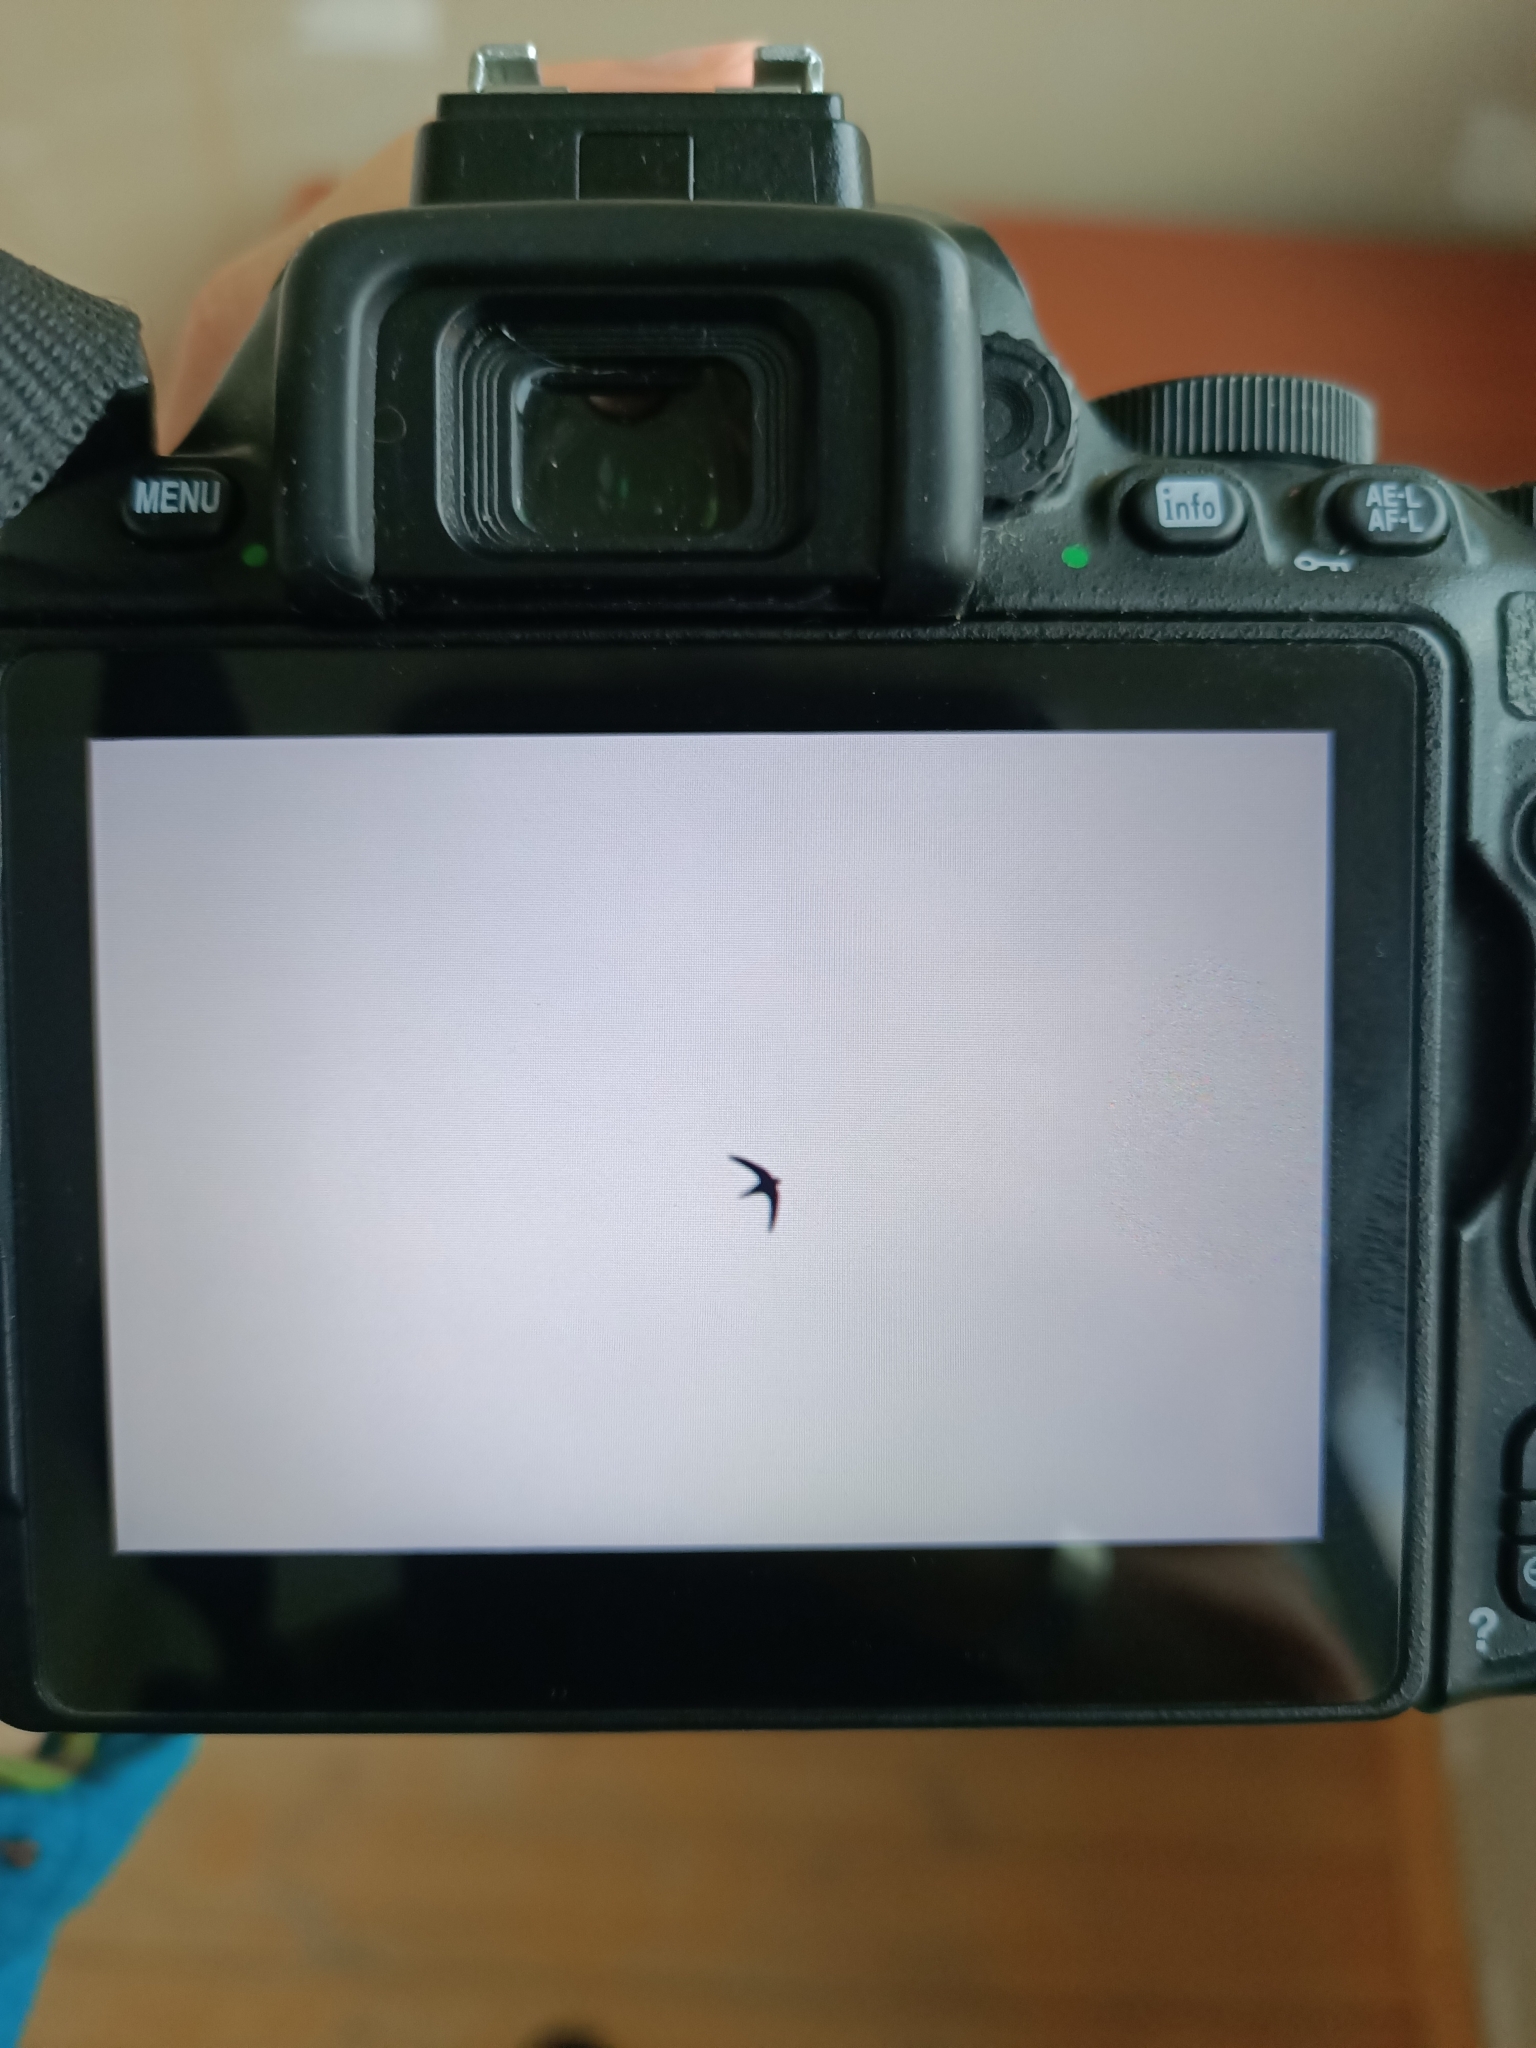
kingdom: Animalia
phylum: Chordata
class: Aves
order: Apodiformes
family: Apodidae
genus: Apus
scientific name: Apus apus
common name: Common swift
